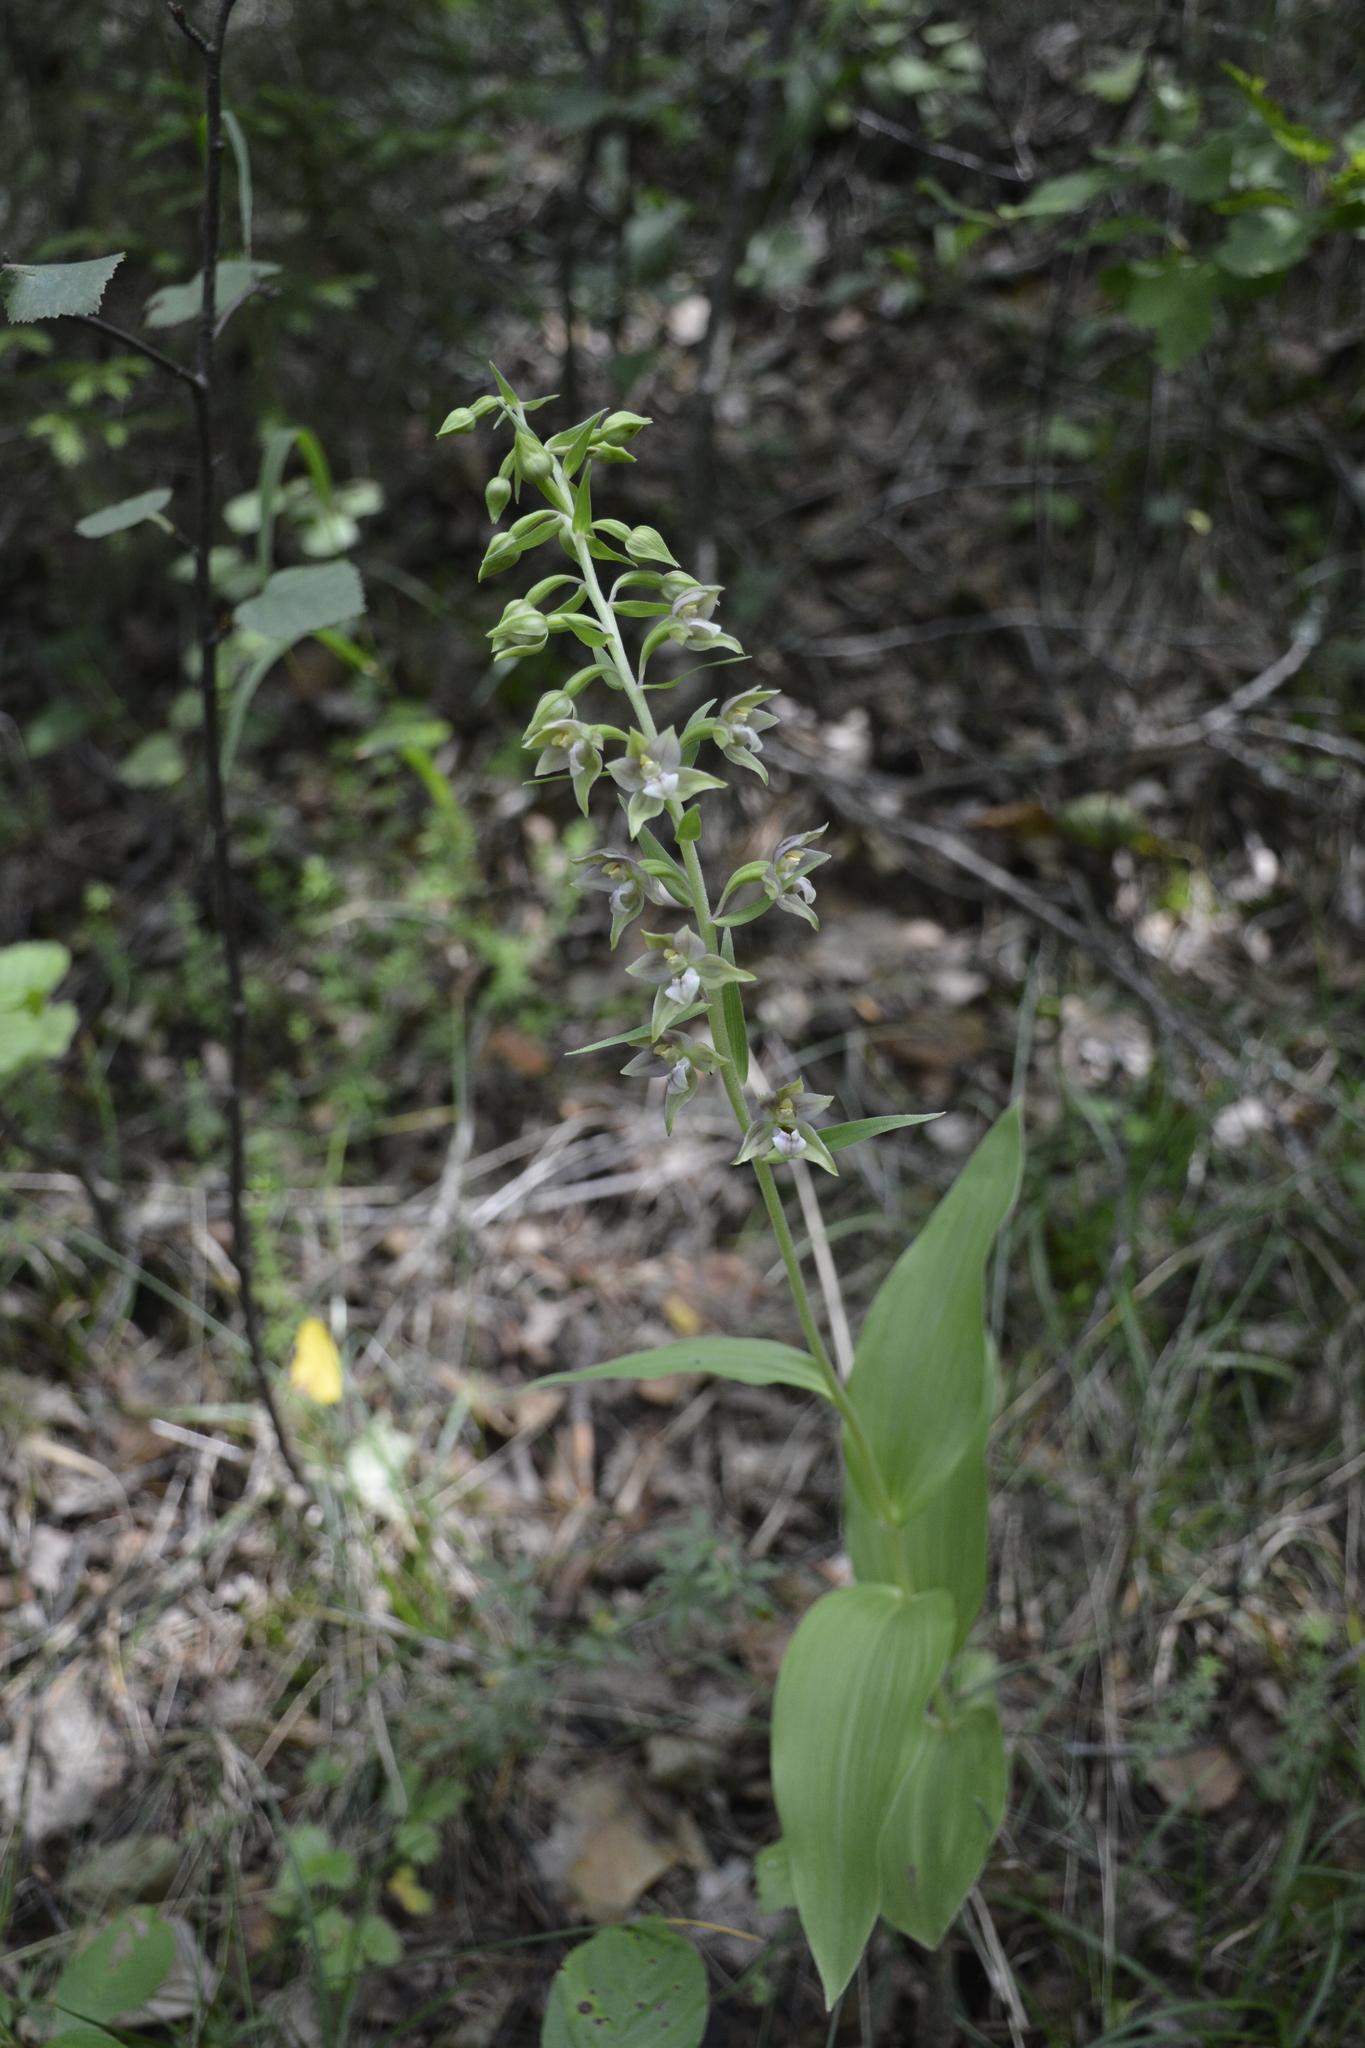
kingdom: Plantae
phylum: Tracheophyta
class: Liliopsida
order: Asparagales
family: Orchidaceae
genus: Epipactis
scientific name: Epipactis helleborine
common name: Broad-leaved helleborine
